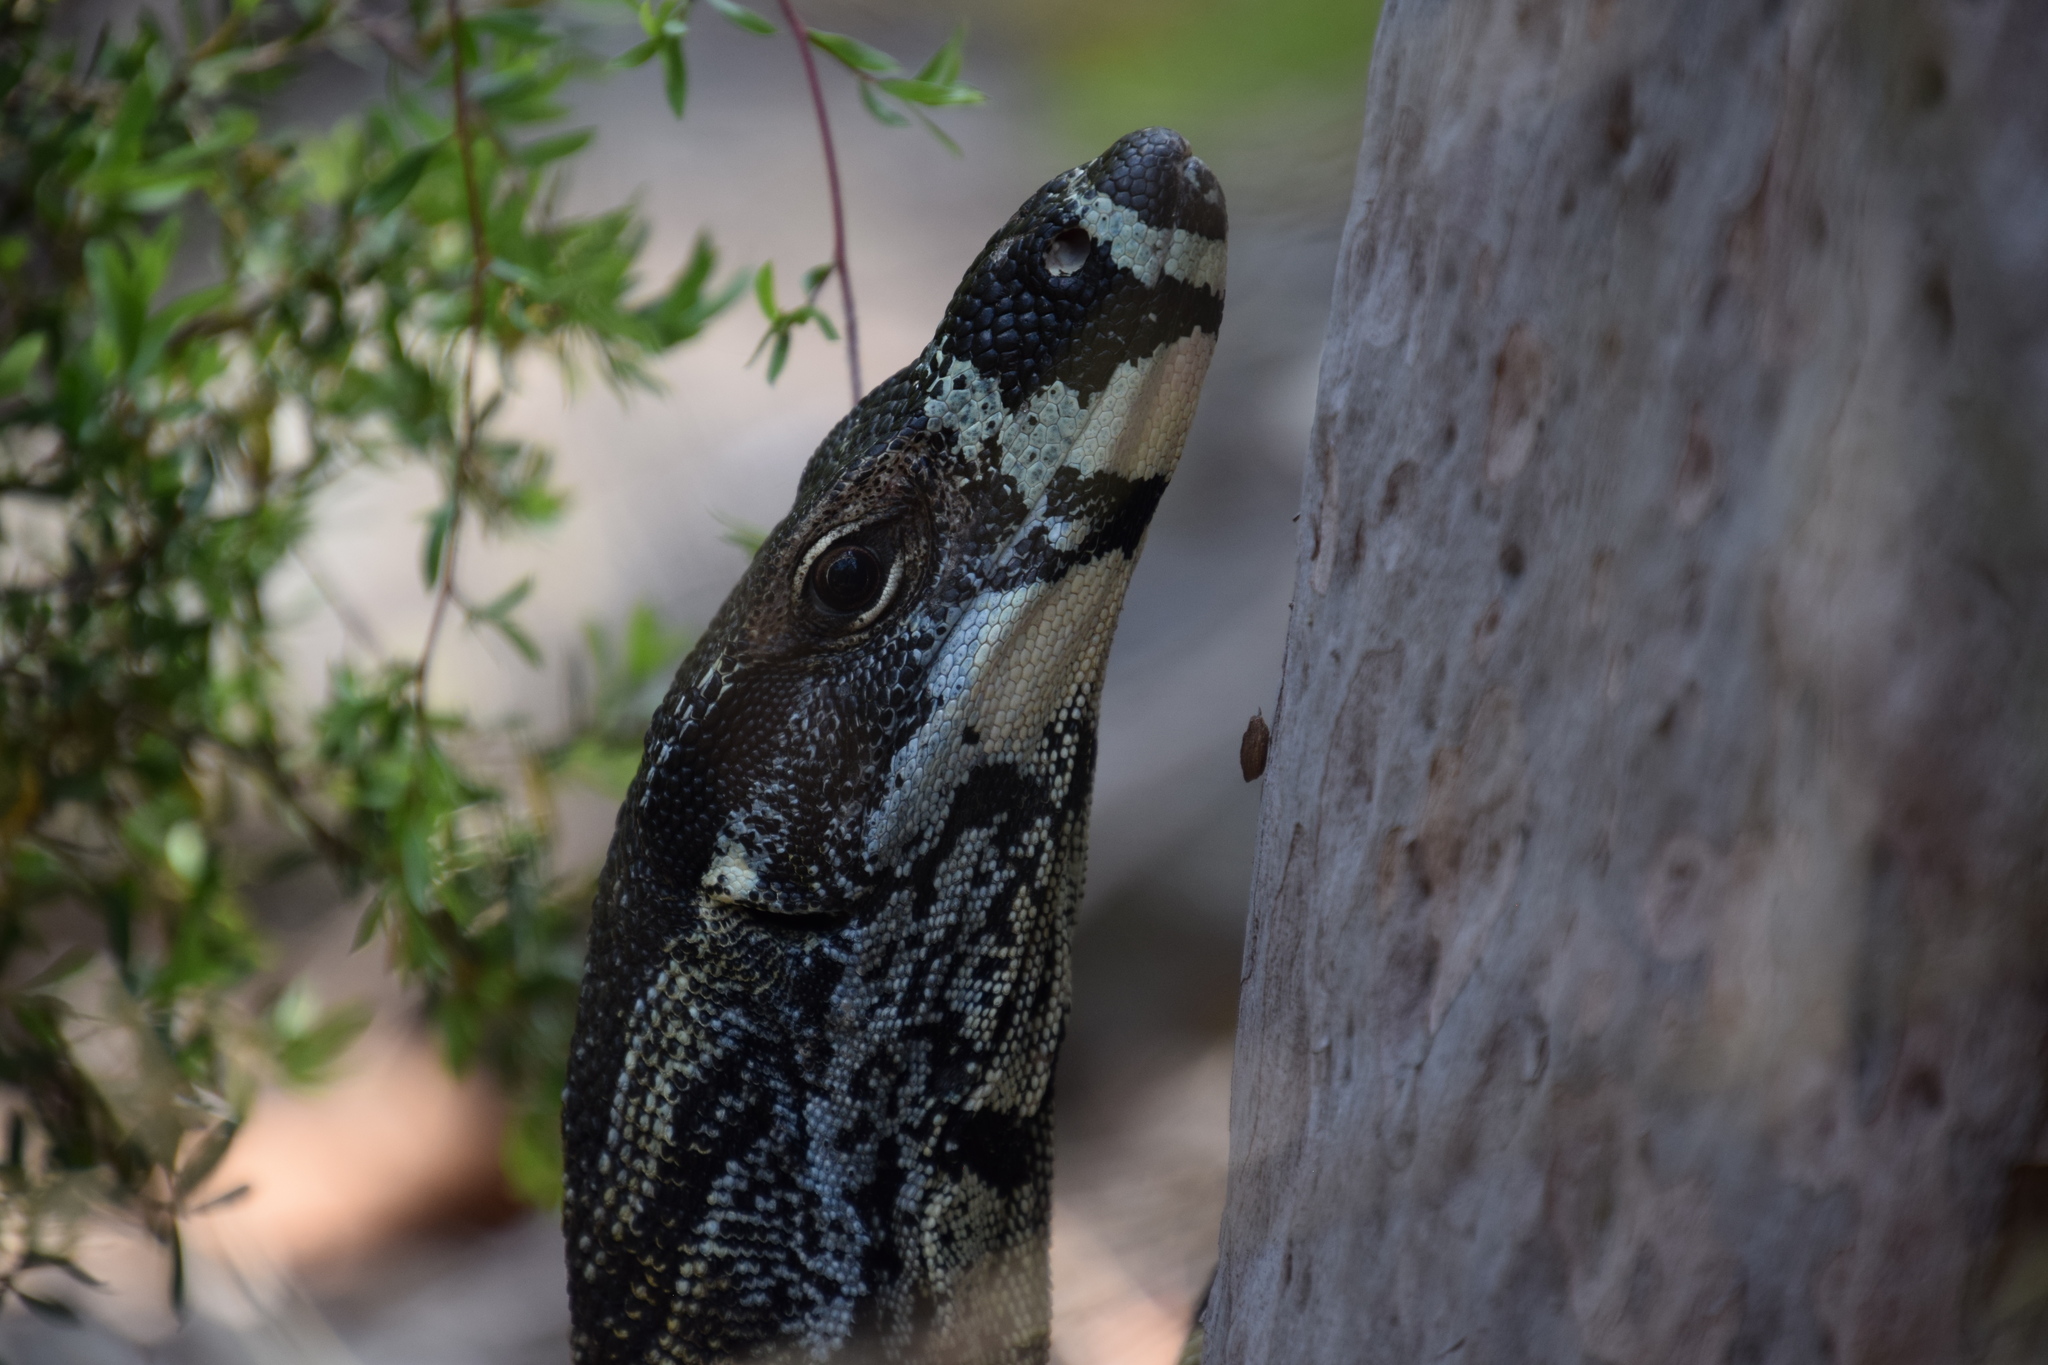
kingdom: Animalia
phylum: Chordata
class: Squamata
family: Varanidae
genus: Varanus
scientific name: Varanus varius
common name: Lace monitor
